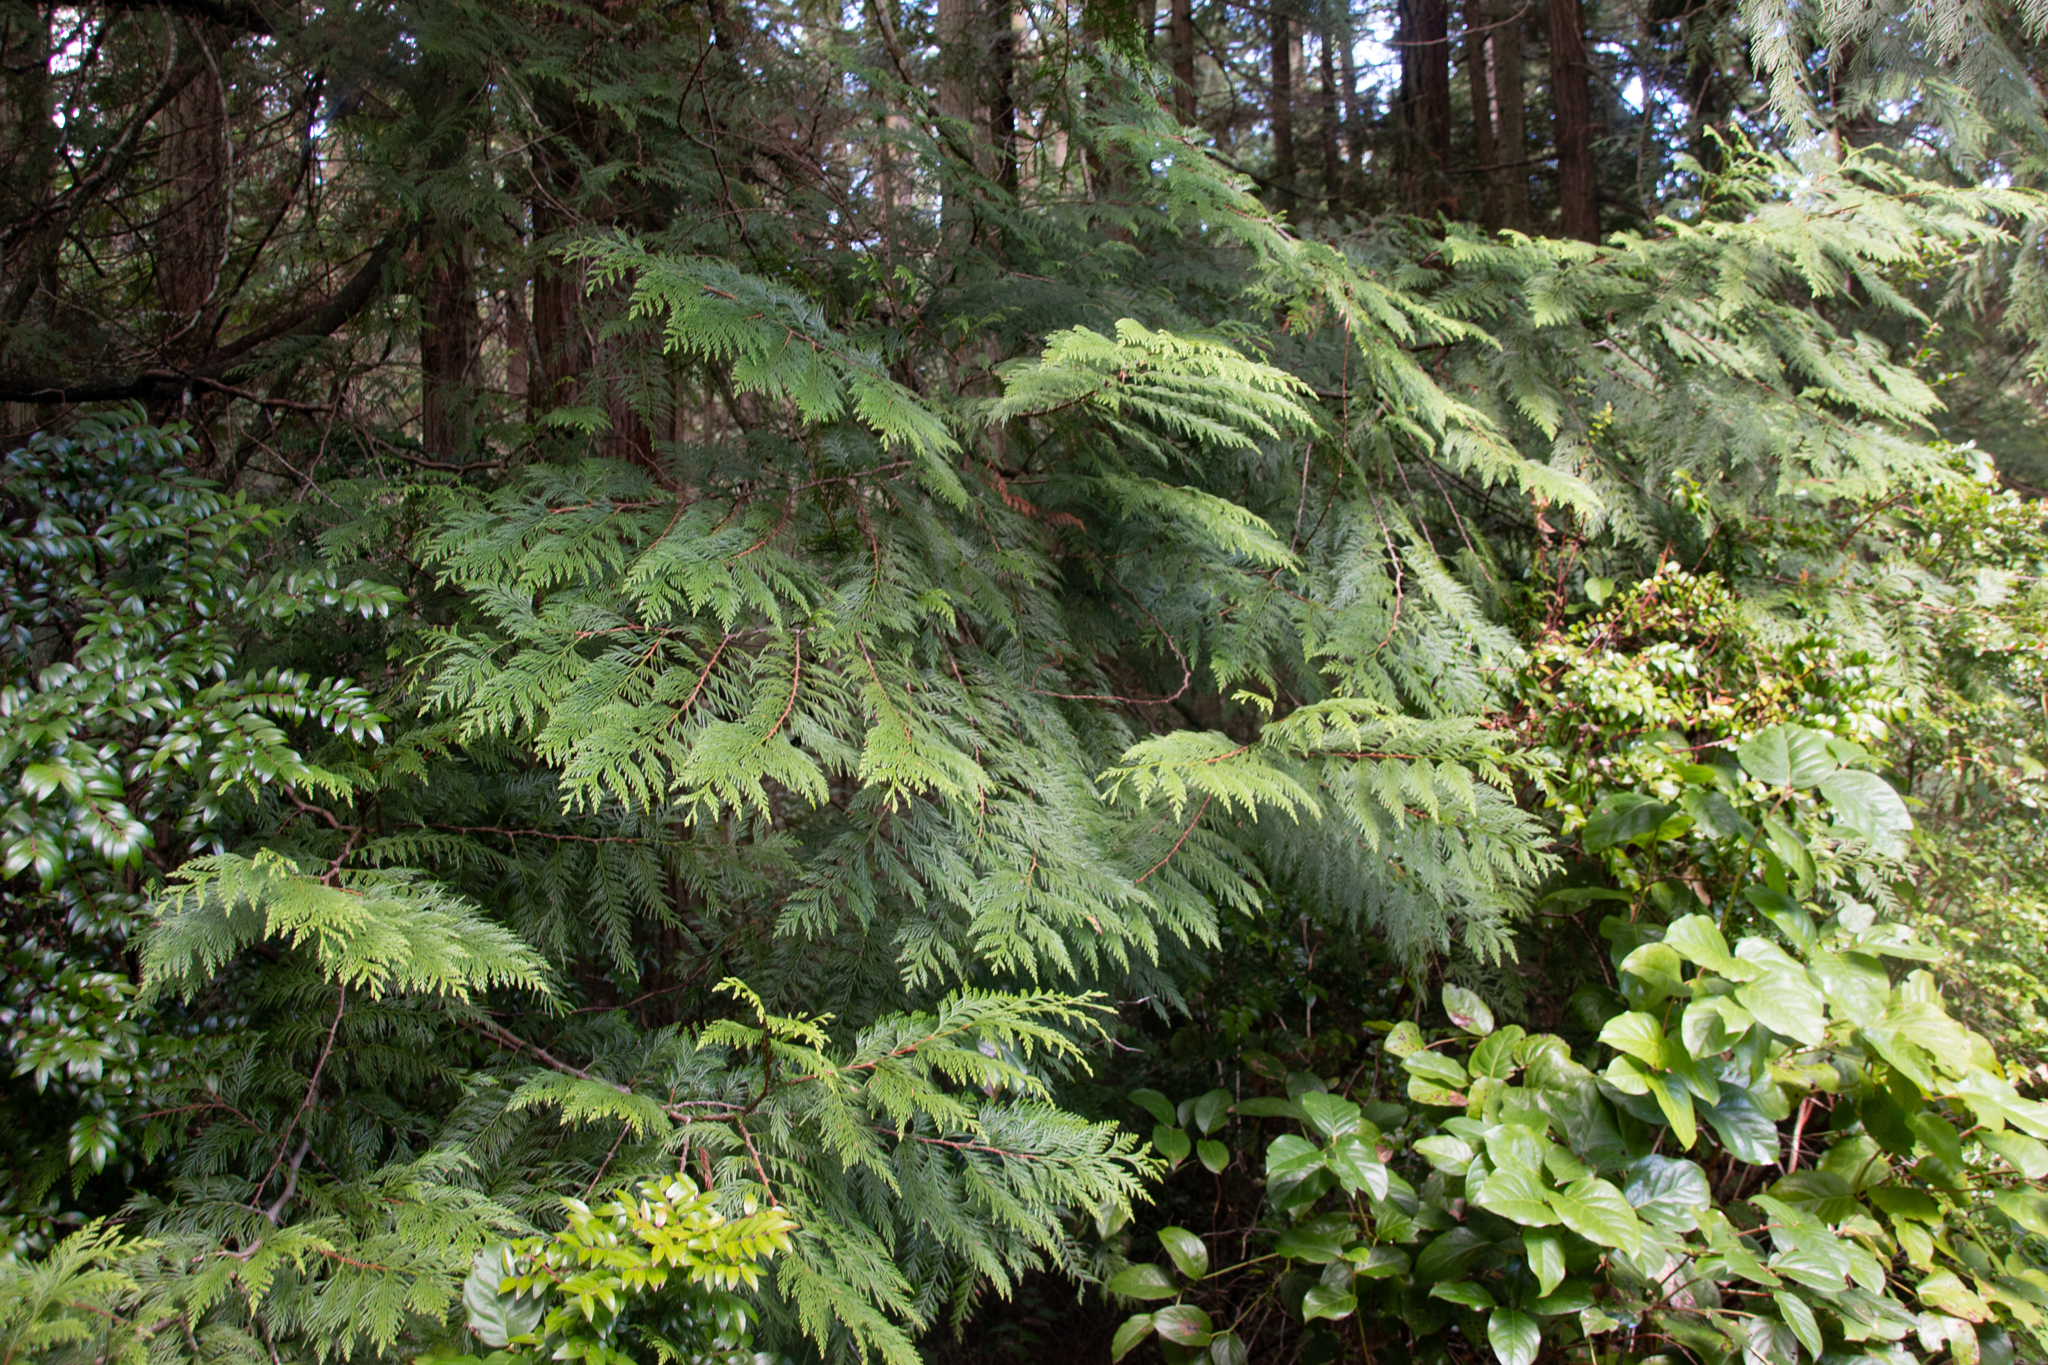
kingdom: Plantae
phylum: Tracheophyta
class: Pinopsida
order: Pinales
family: Cupressaceae
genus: Thuja
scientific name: Thuja plicata
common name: Western red-cedar
